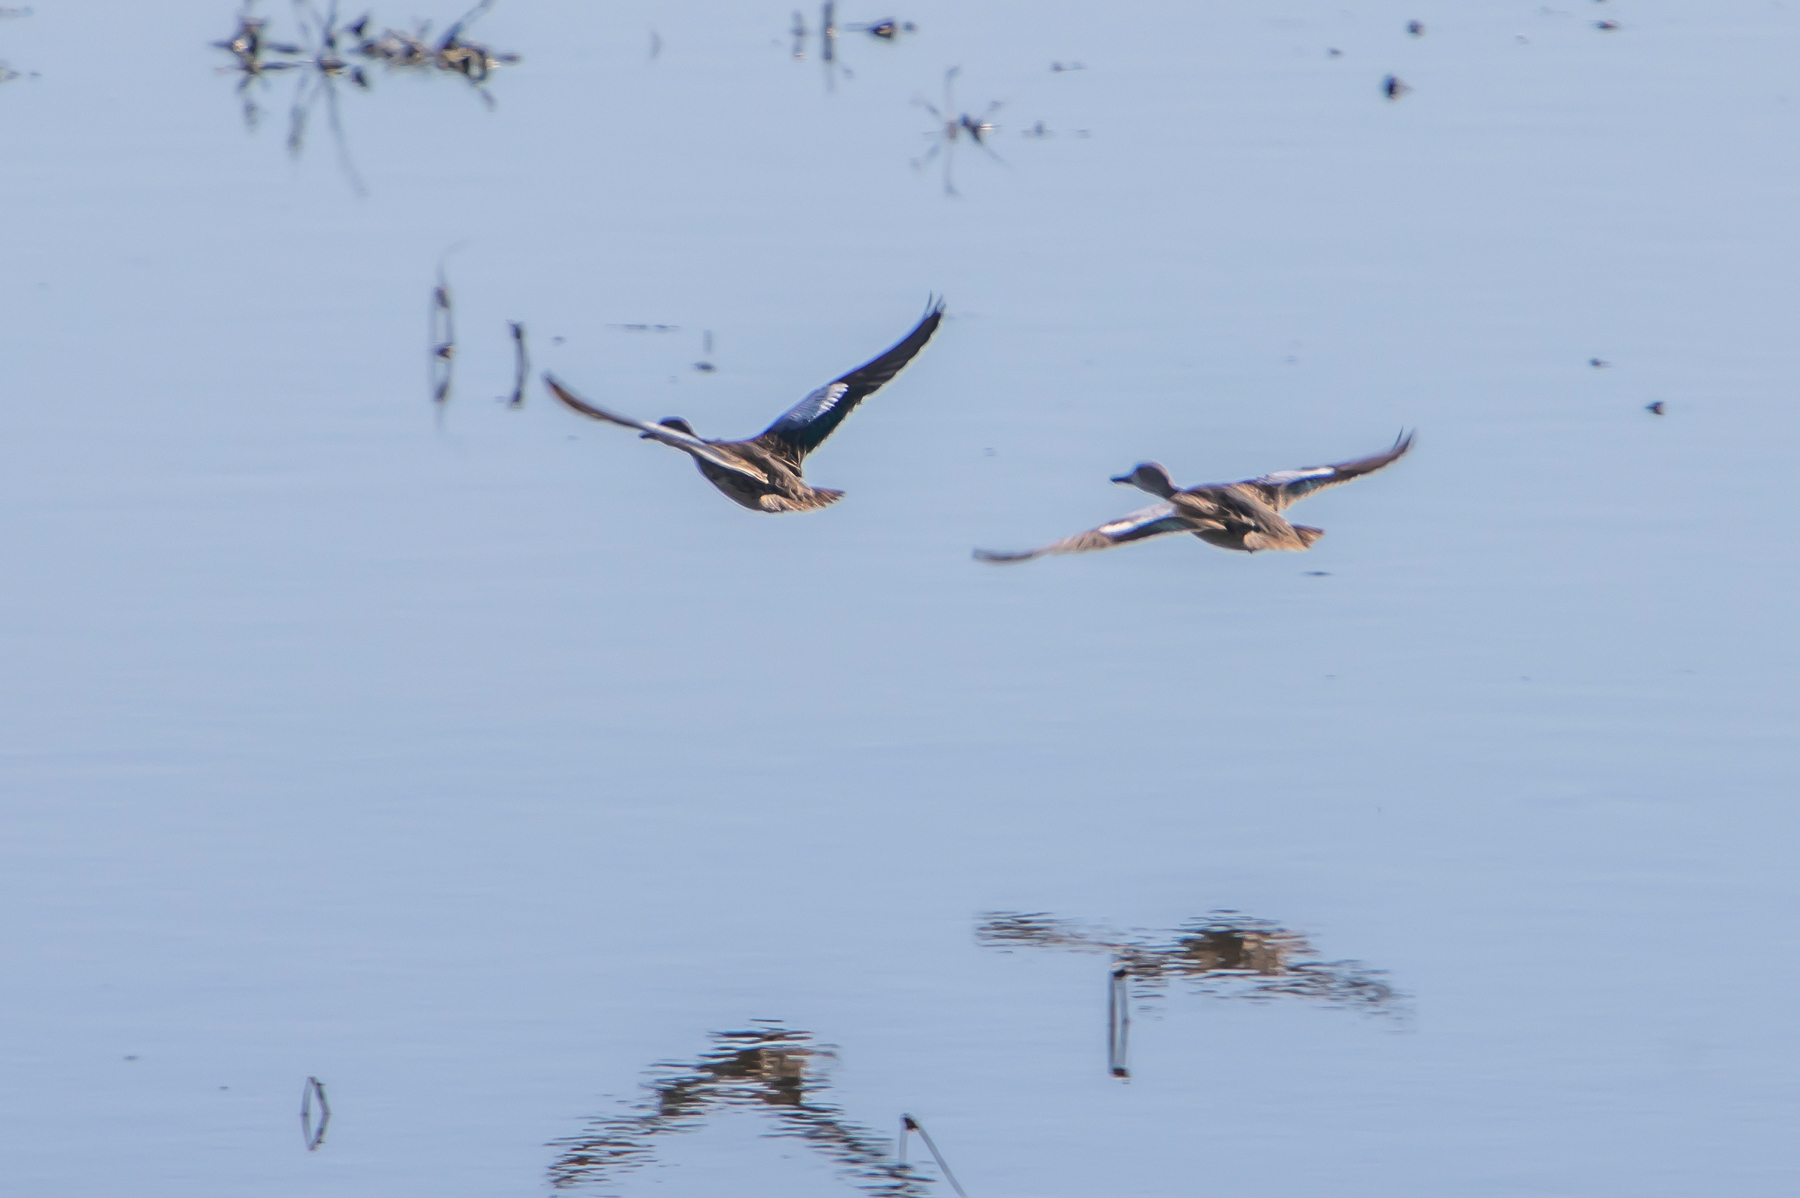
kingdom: Animalia
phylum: Chordata
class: Aves
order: Anseriformes
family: Anatidae
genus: Spatula
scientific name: Spatula discors
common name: Blue-winged teal
